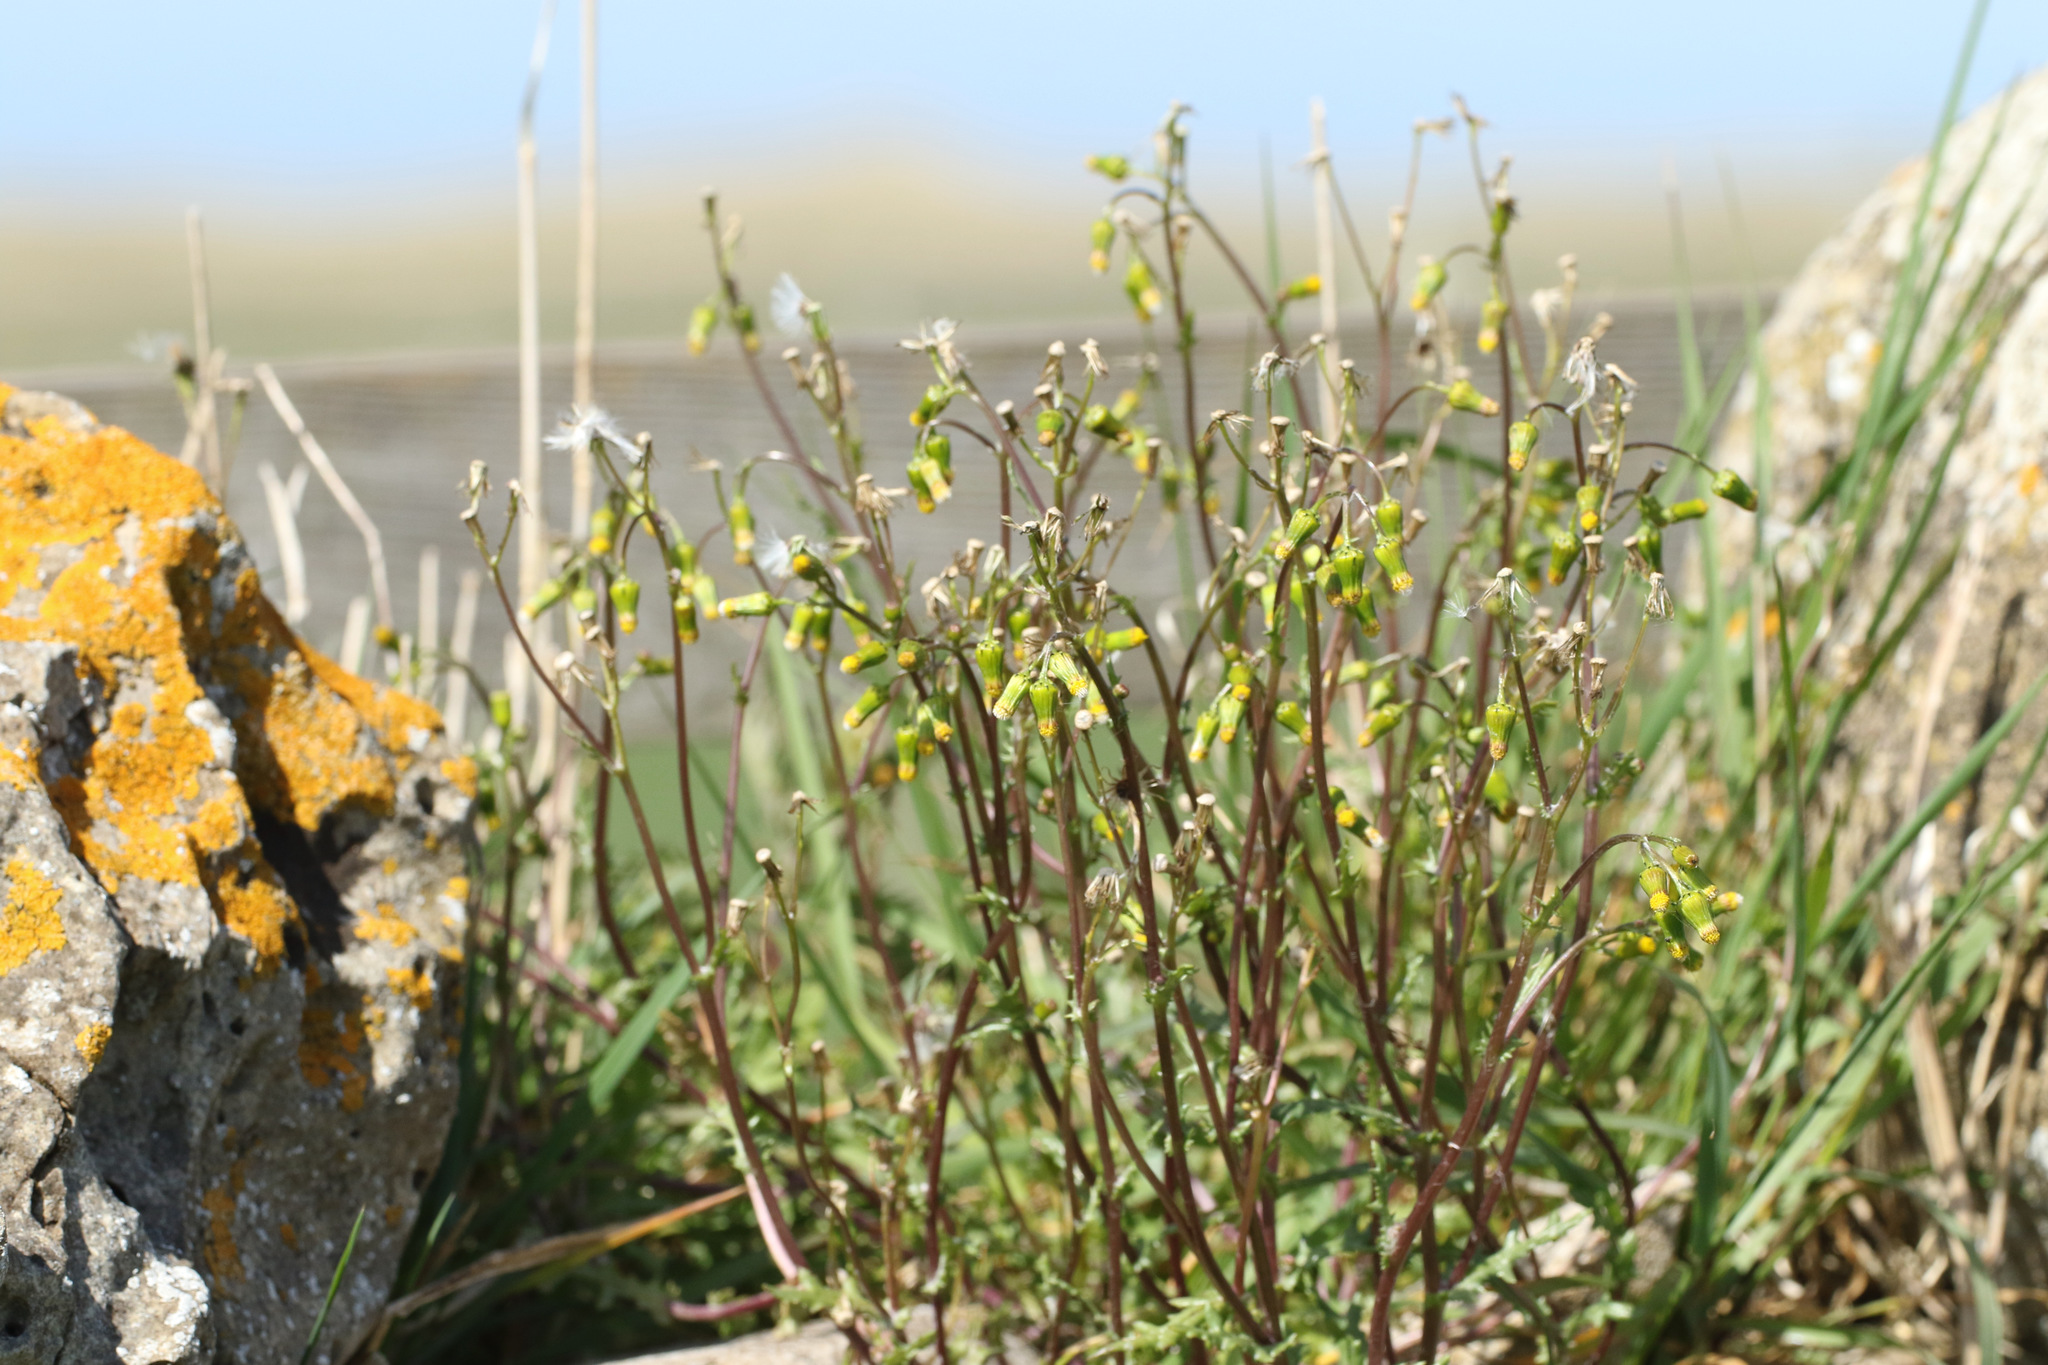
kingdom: Plantae
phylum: Tracheophyta
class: Magnoliopsida
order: Asterales
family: Asteraceae
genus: Senecio
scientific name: Senecio vulgaris
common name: Old-man-in-the-spring
